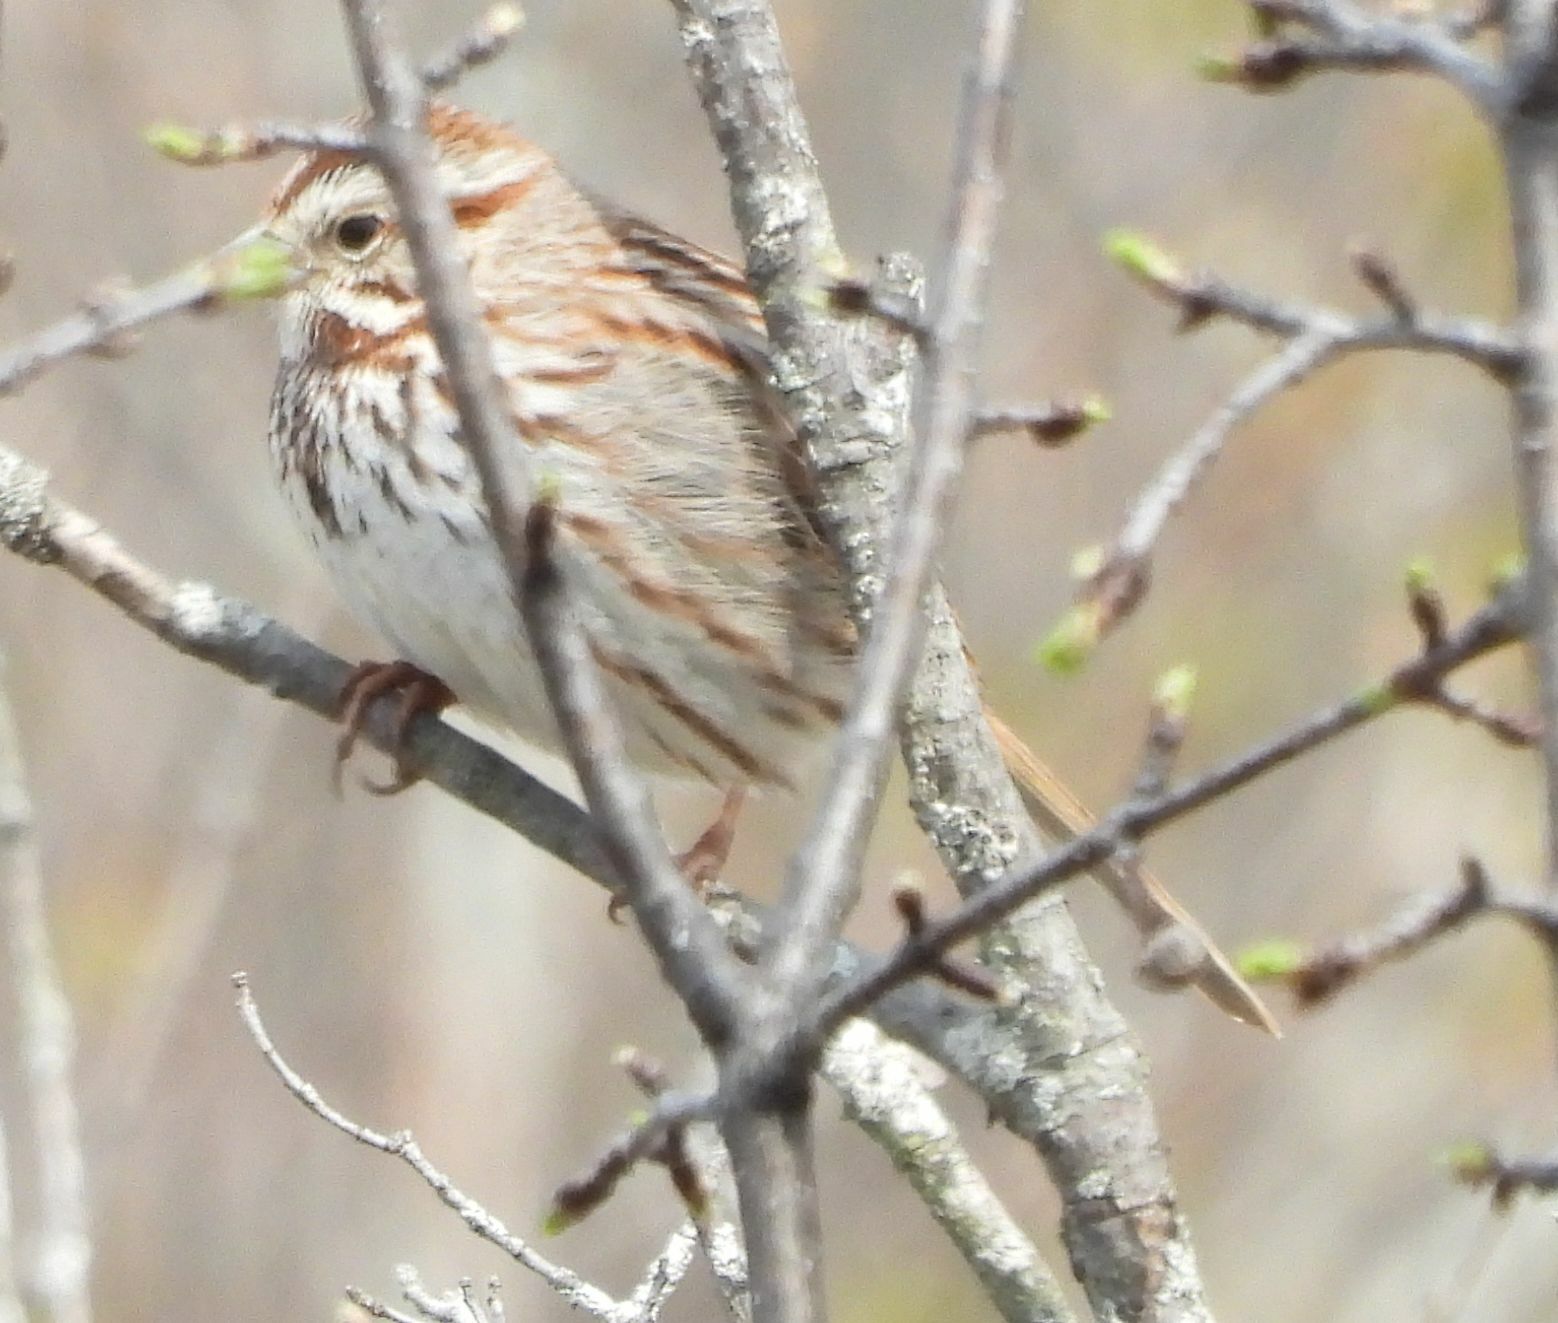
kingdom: Animalia
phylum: Chordata
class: Aves
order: Passeriformes
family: Passerellidae
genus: Melospiza
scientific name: Melospiza melodia
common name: Song sparrow
